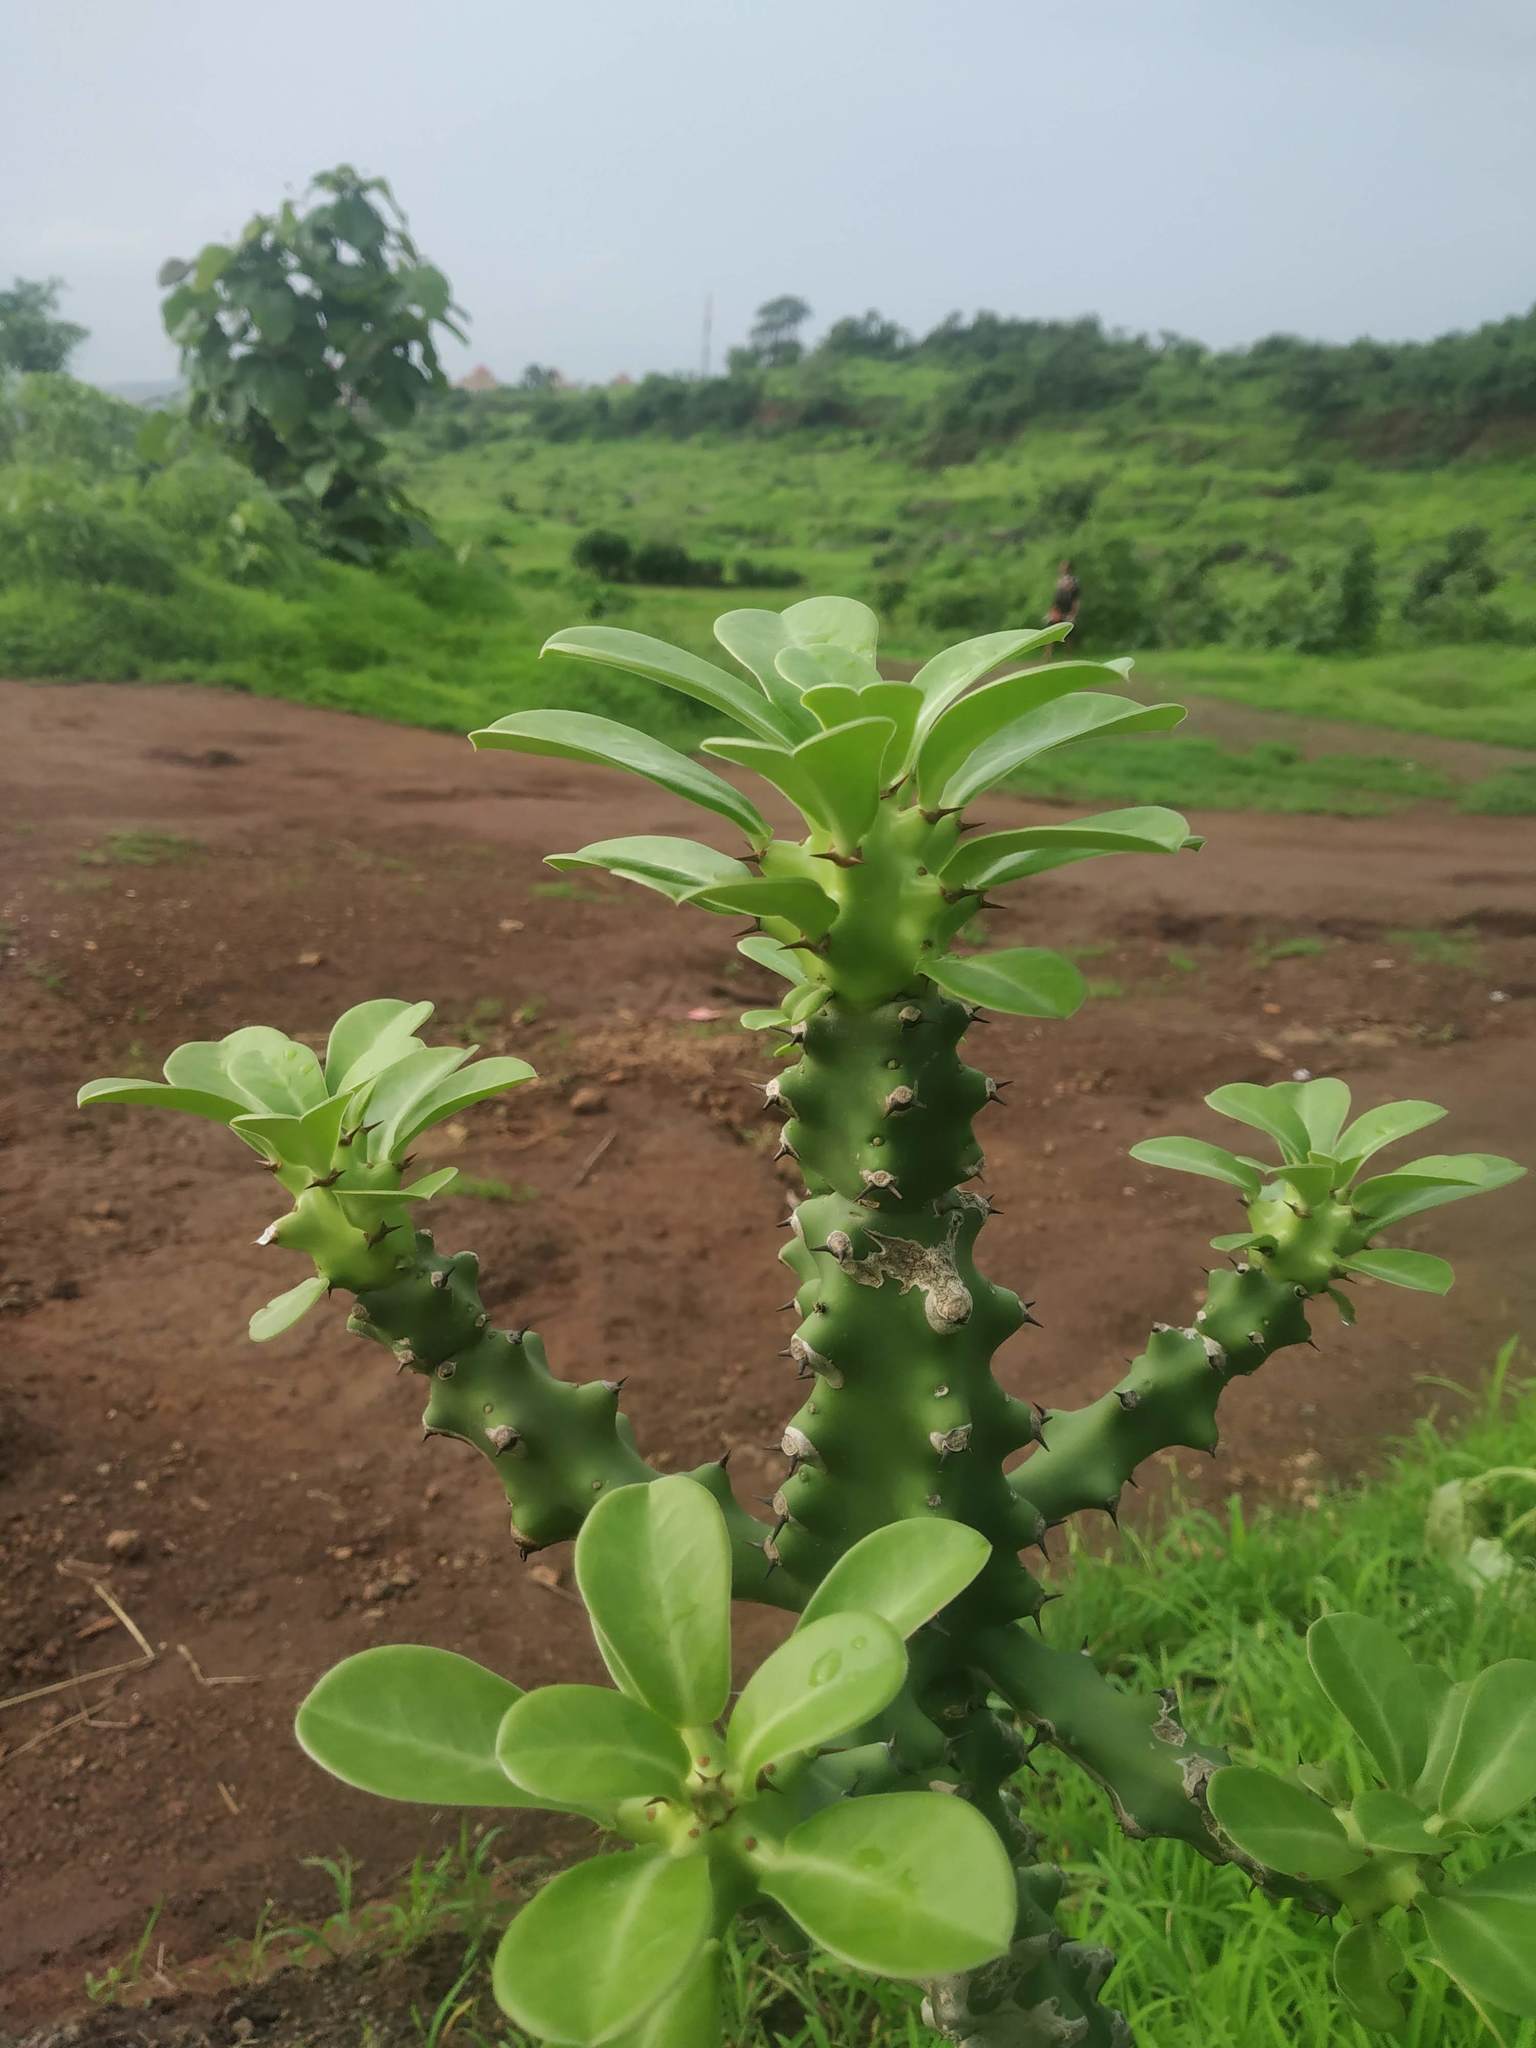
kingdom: Plantae
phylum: Tracheophyta
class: Magnoliopsida
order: Malpighiales
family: Euphorbiaceae
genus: Euphorbia
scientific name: Euphorbia neriifolia
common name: Hedge euphorbia
